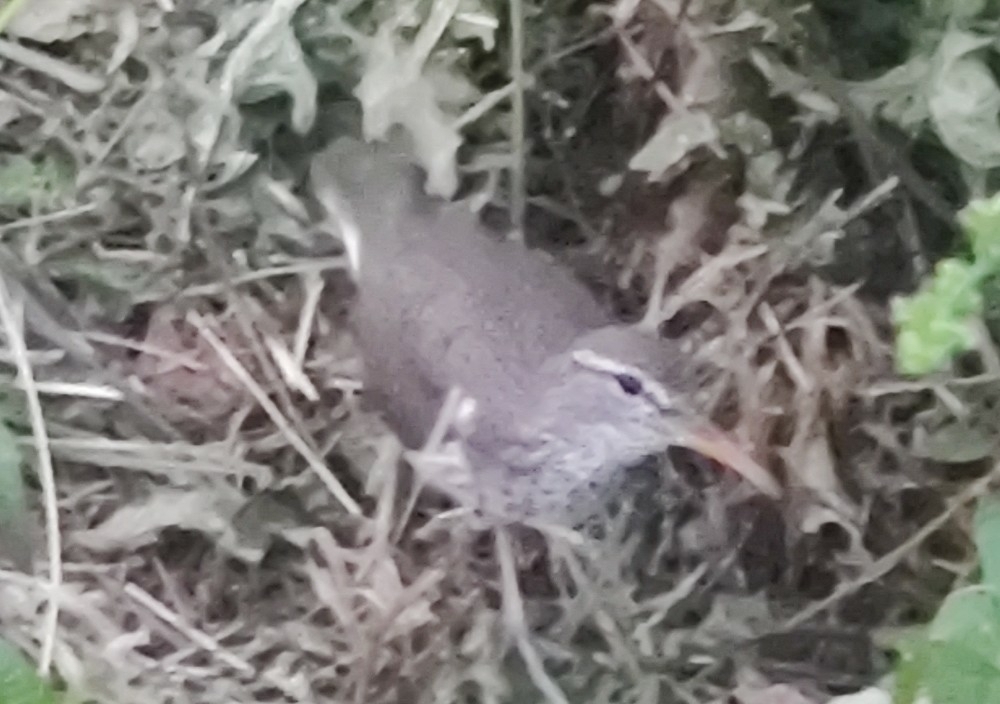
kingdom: Animalia
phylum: Chordata
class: Aves
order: Charadriiformes
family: Scolopacidae
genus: Actitis
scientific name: Actitis macularius
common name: Spotted sandpiper
